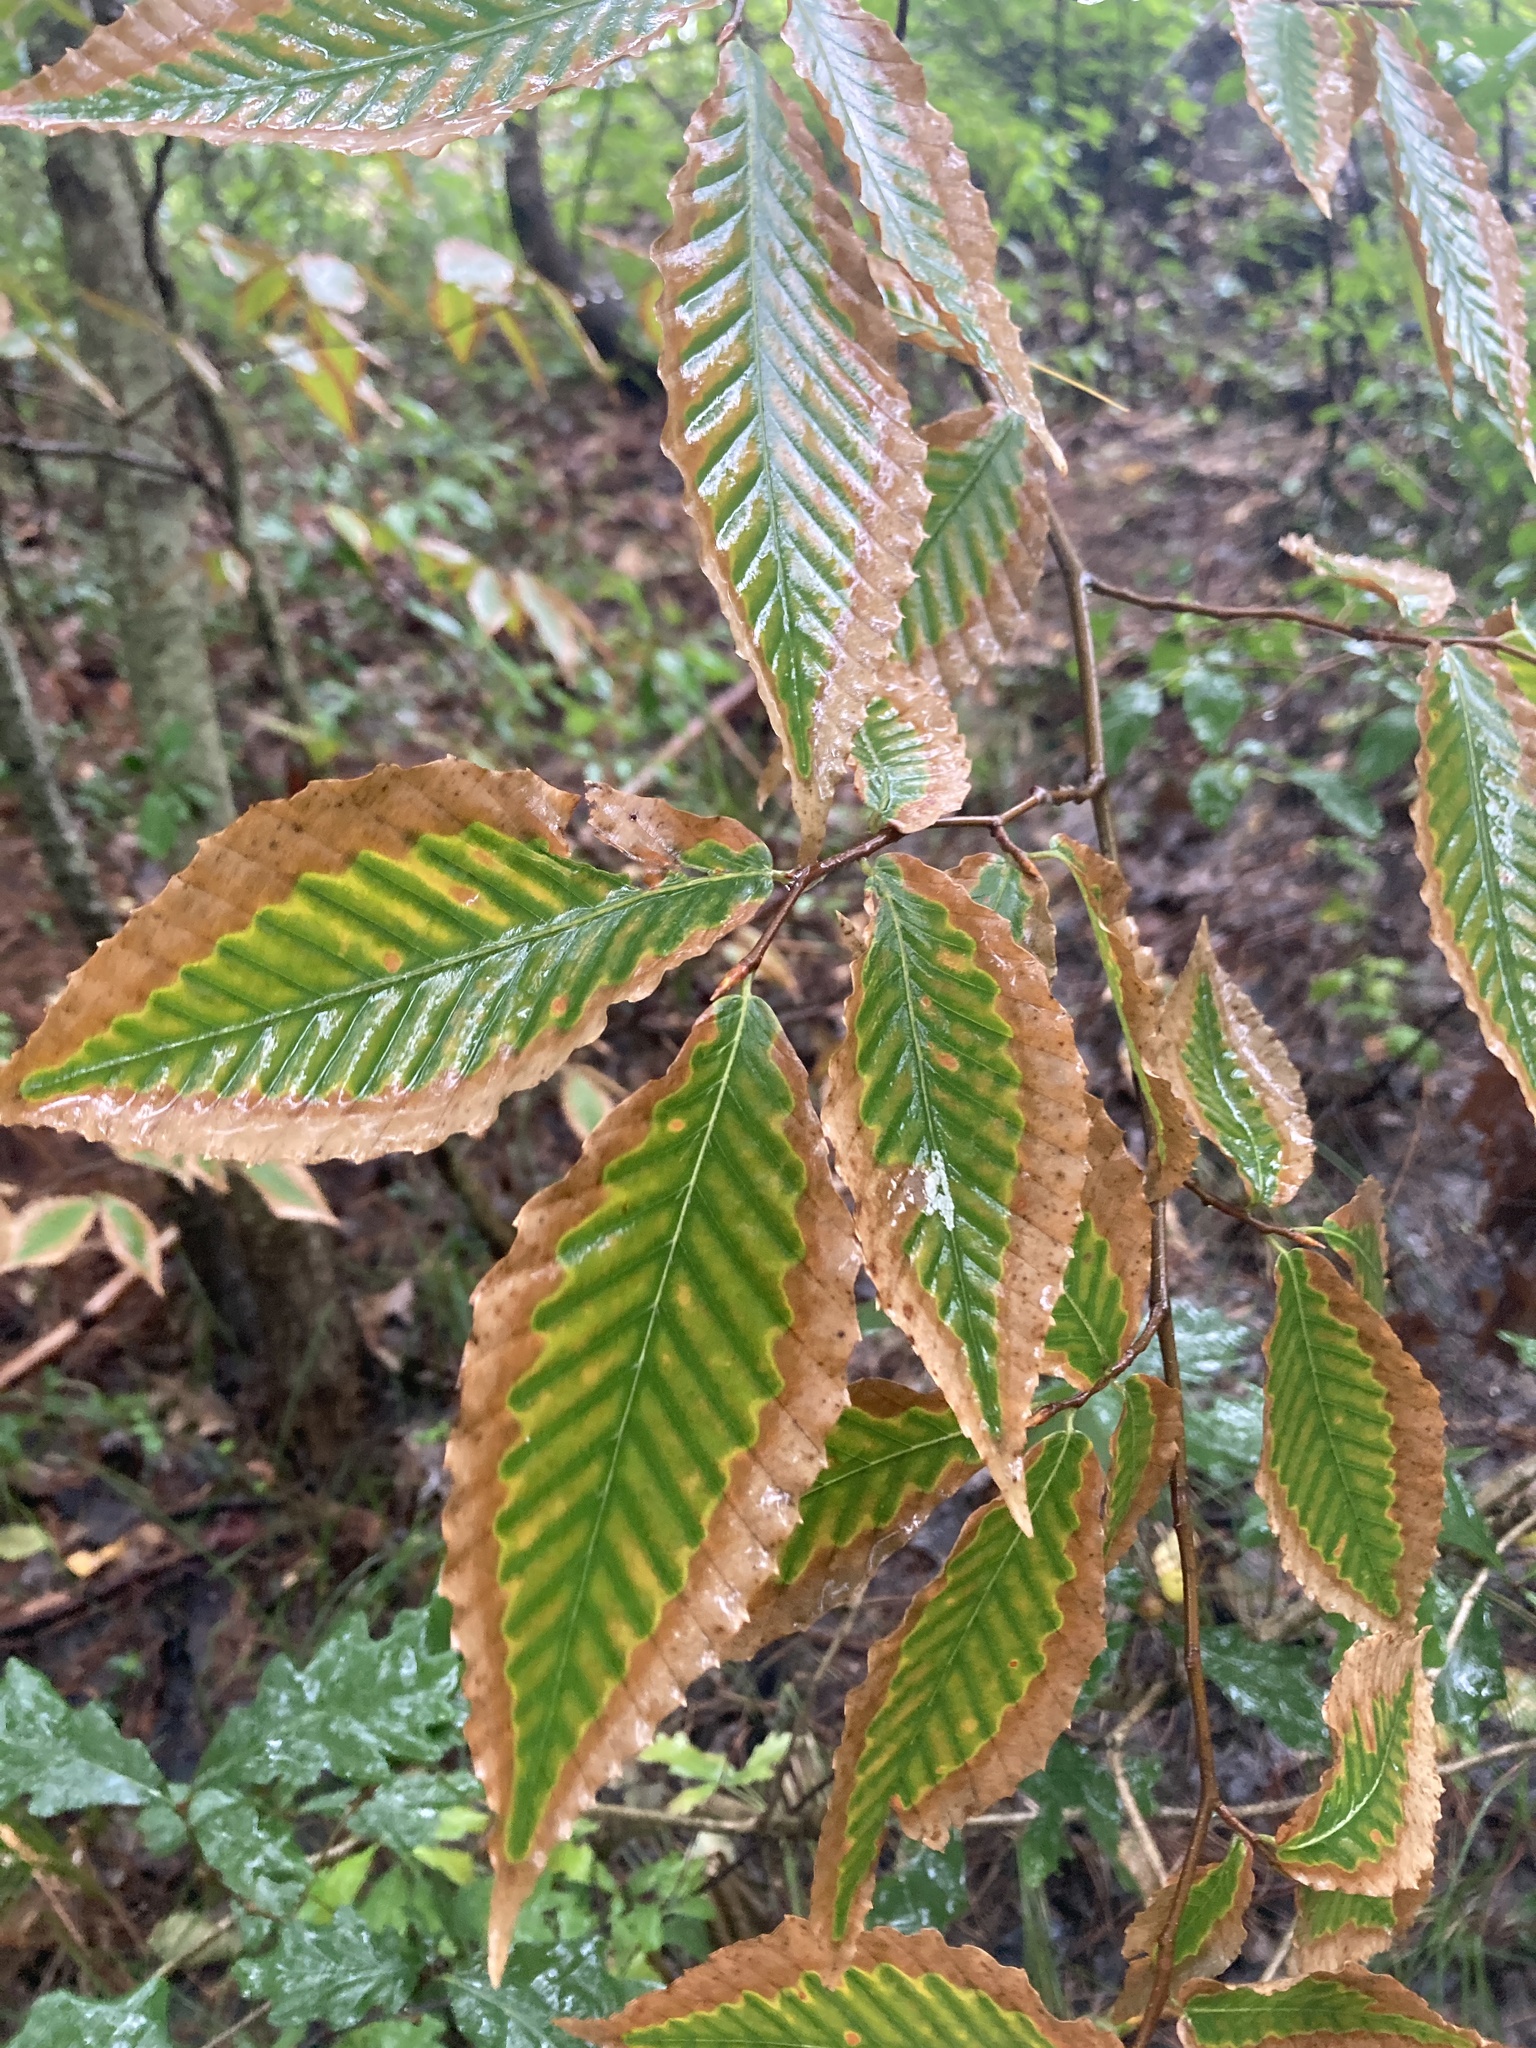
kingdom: Plantae
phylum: Tracheophyta
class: Magnoliopsida
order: Fagales
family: Fagaceae
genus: Fagus
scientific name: Fagus grandifolia
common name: American beech
